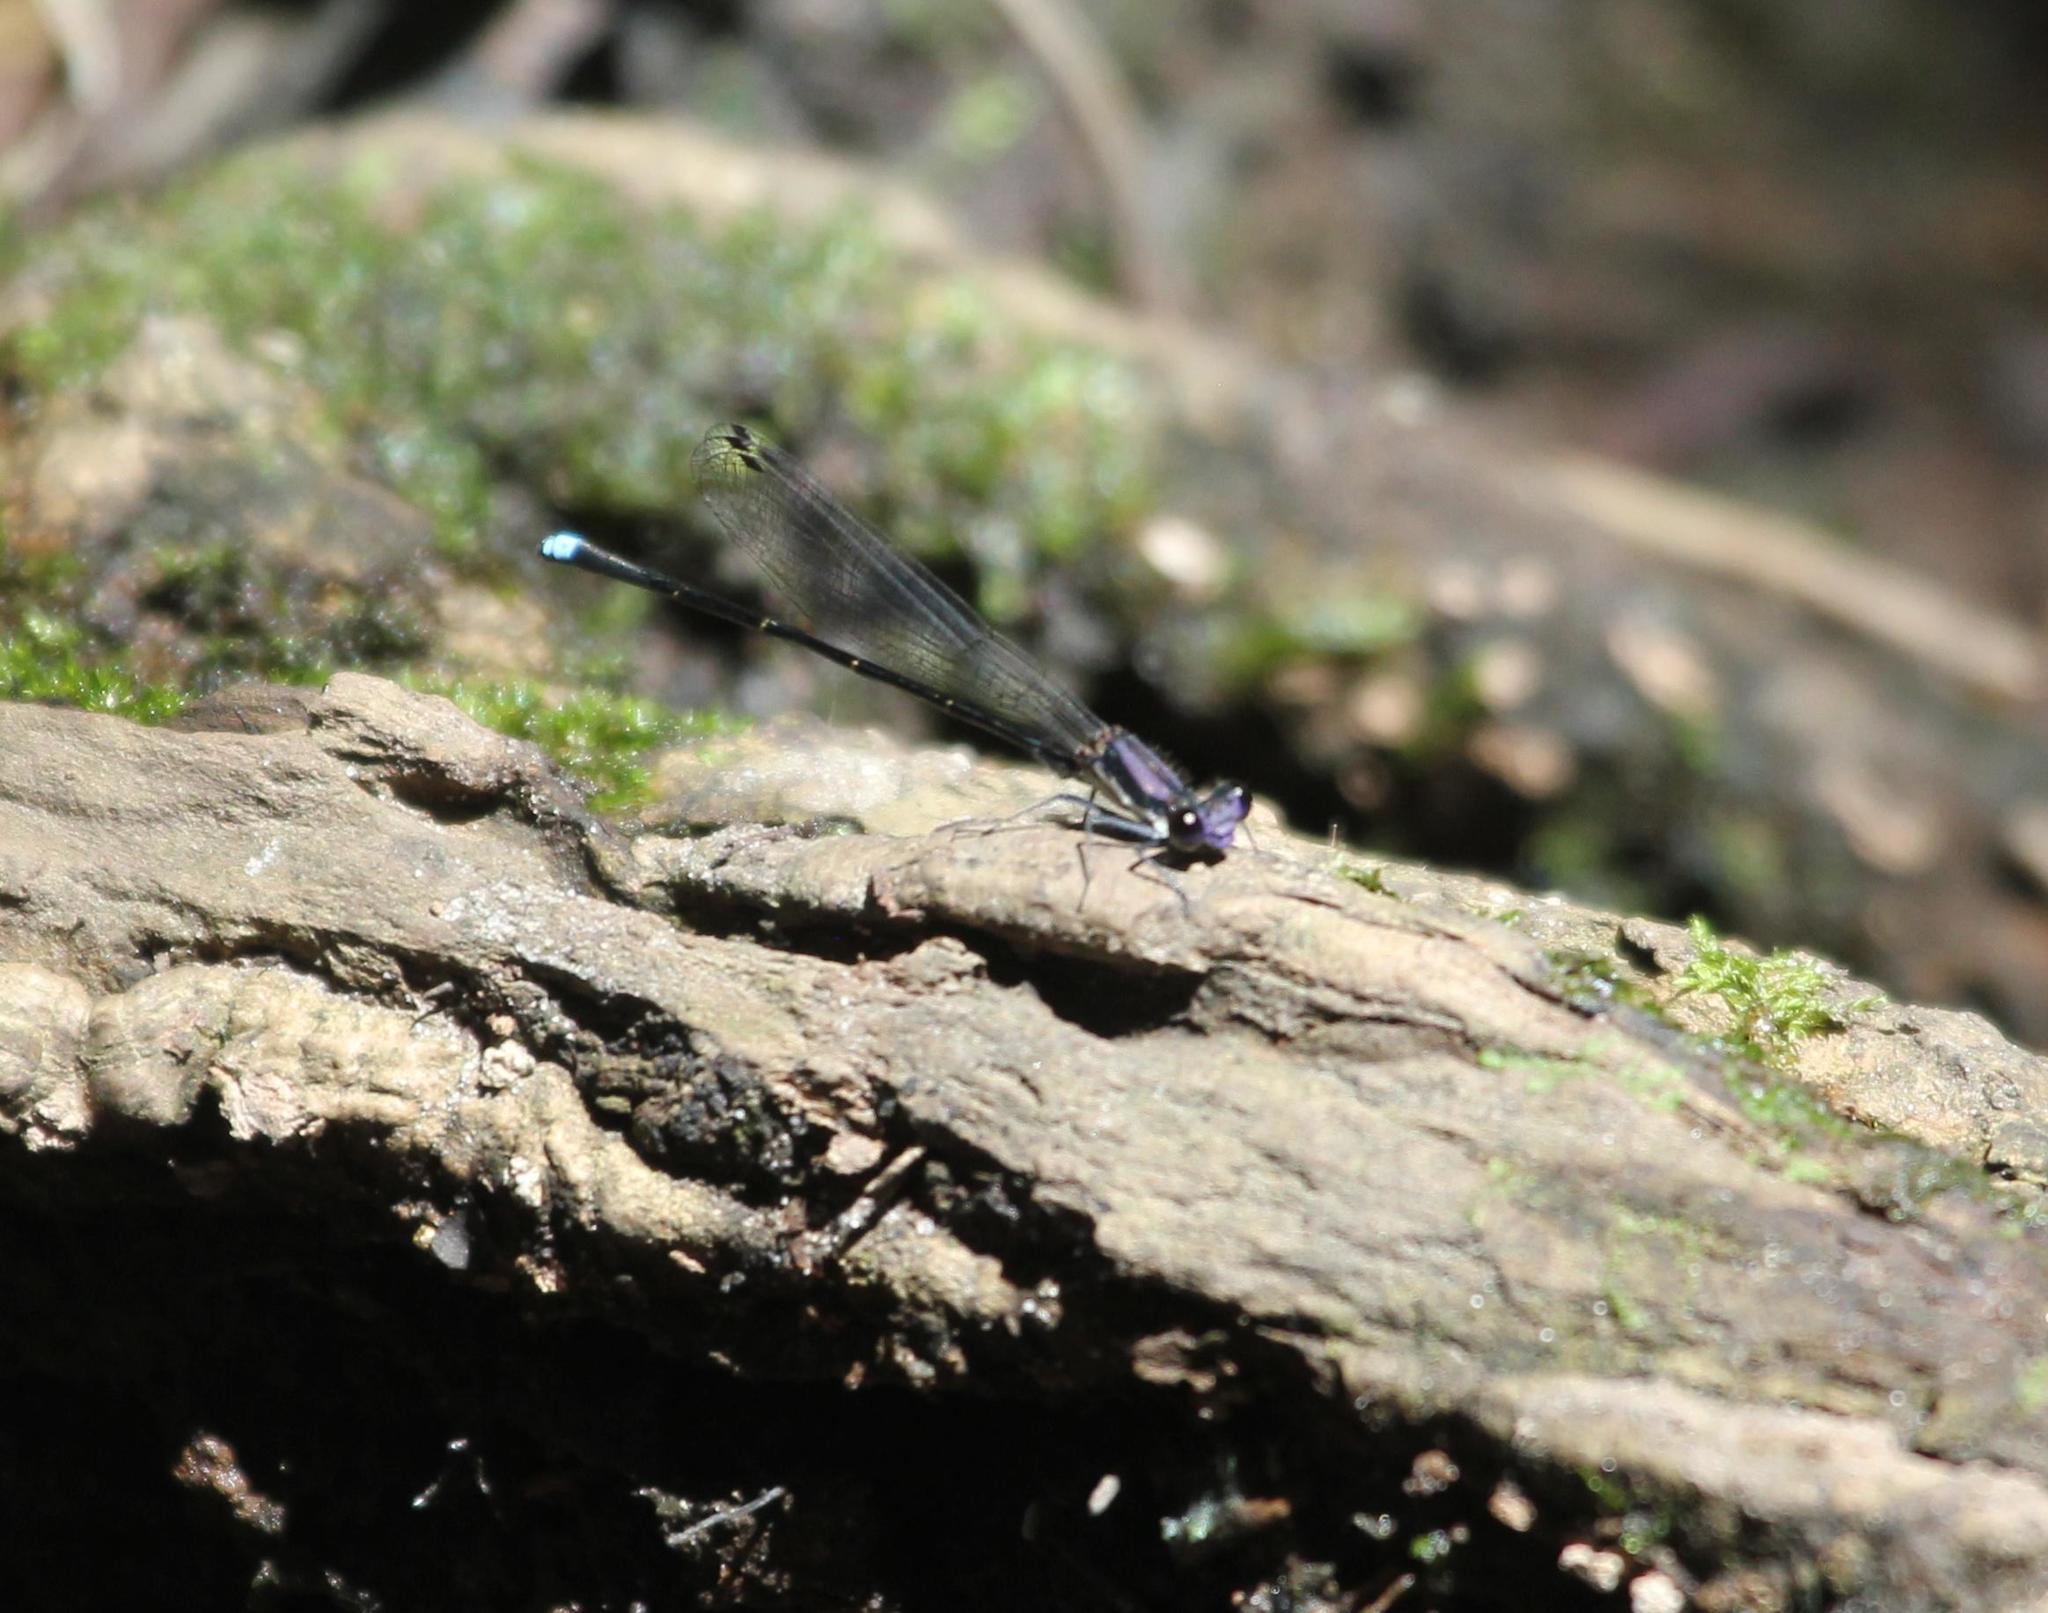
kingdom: Animalia
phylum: Arthropoda
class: Insecta
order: Odonata
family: Coenagrionidae
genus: Argia
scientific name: Argia tibialis
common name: Blue-tipped dancer
